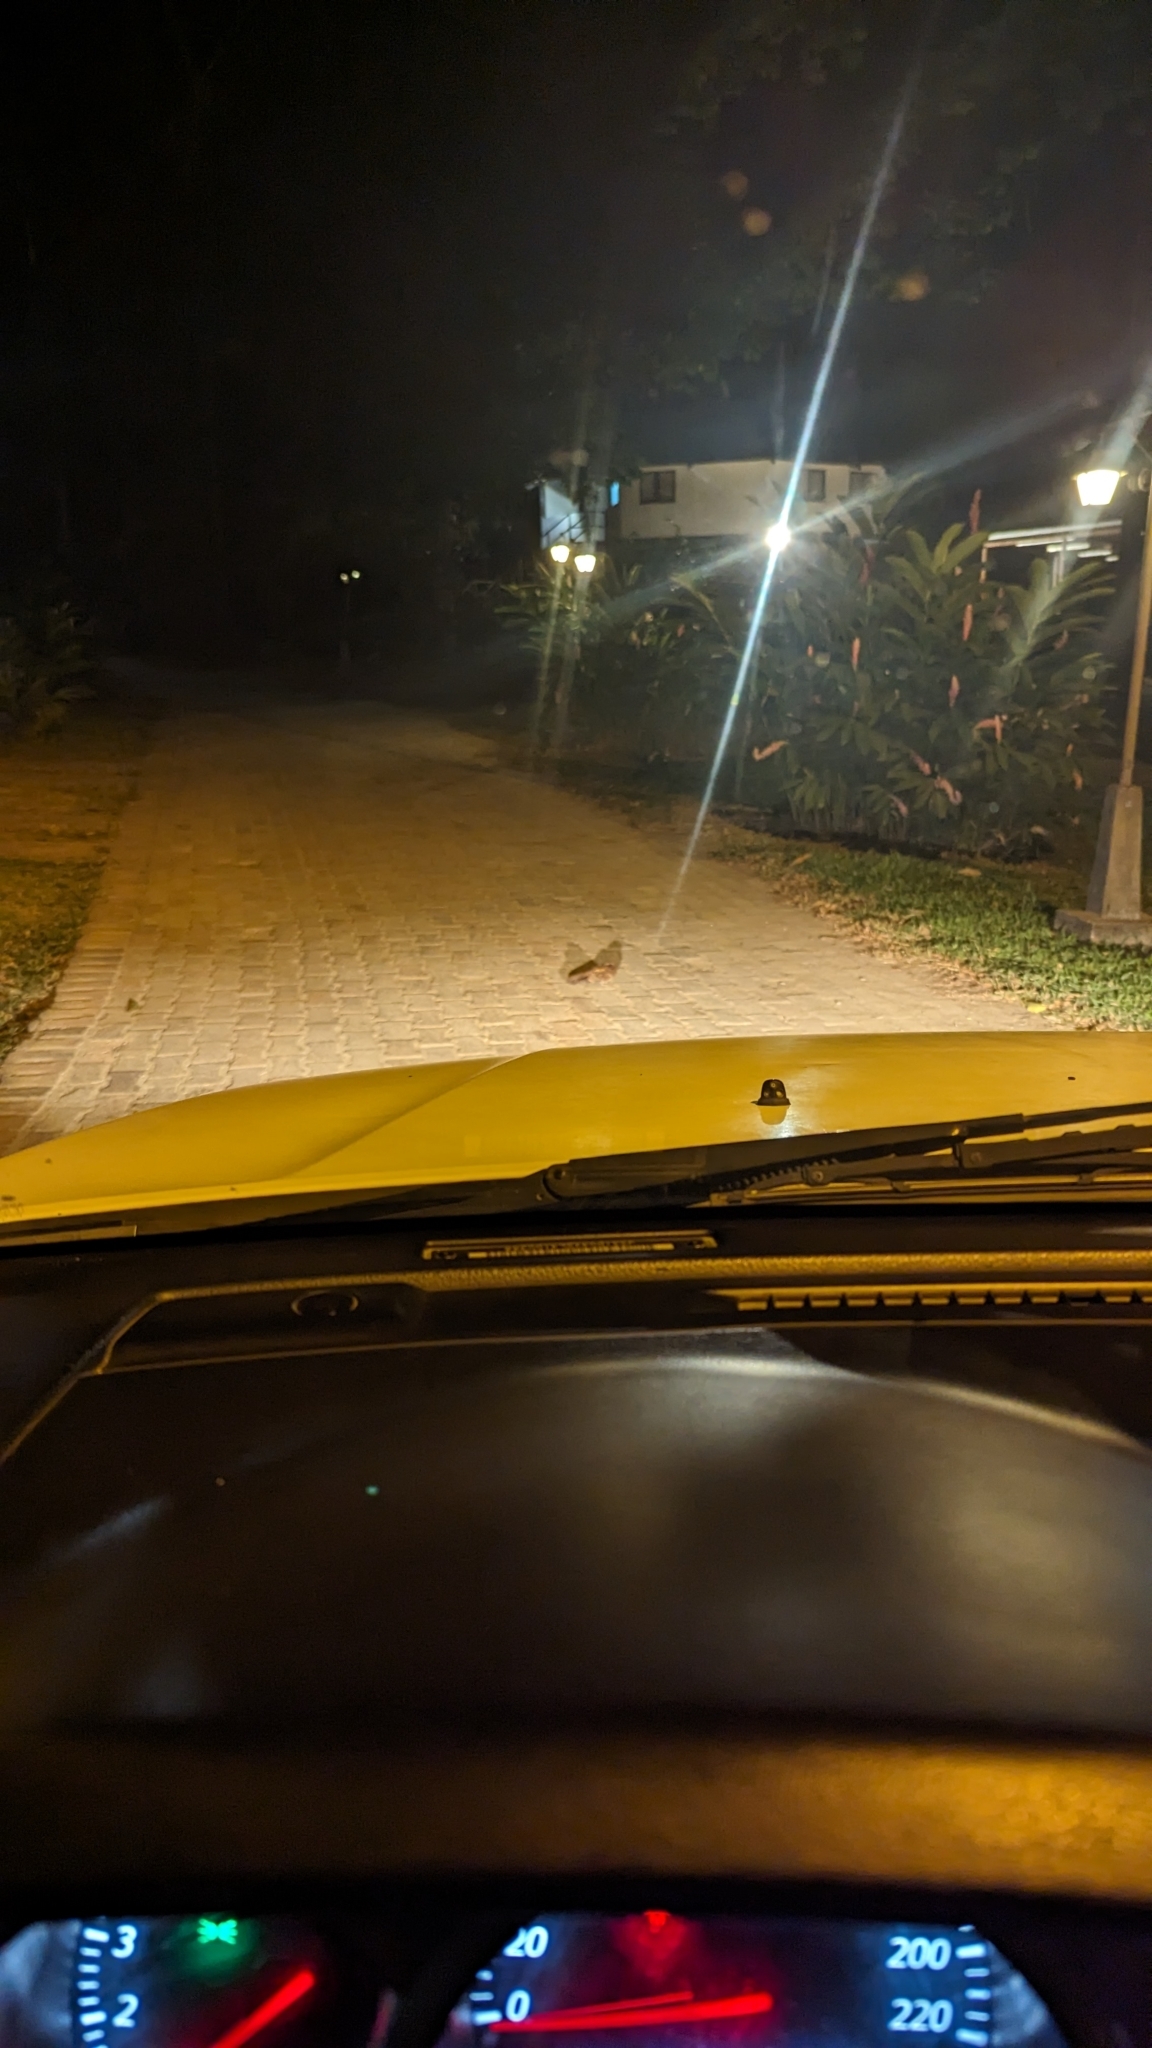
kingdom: Animalia
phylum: Chordata
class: Aves
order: Caprimulgiformes
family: Caprimulgidae
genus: Nyctidromus
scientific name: Nyctidromus albicollis
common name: Pauraque
